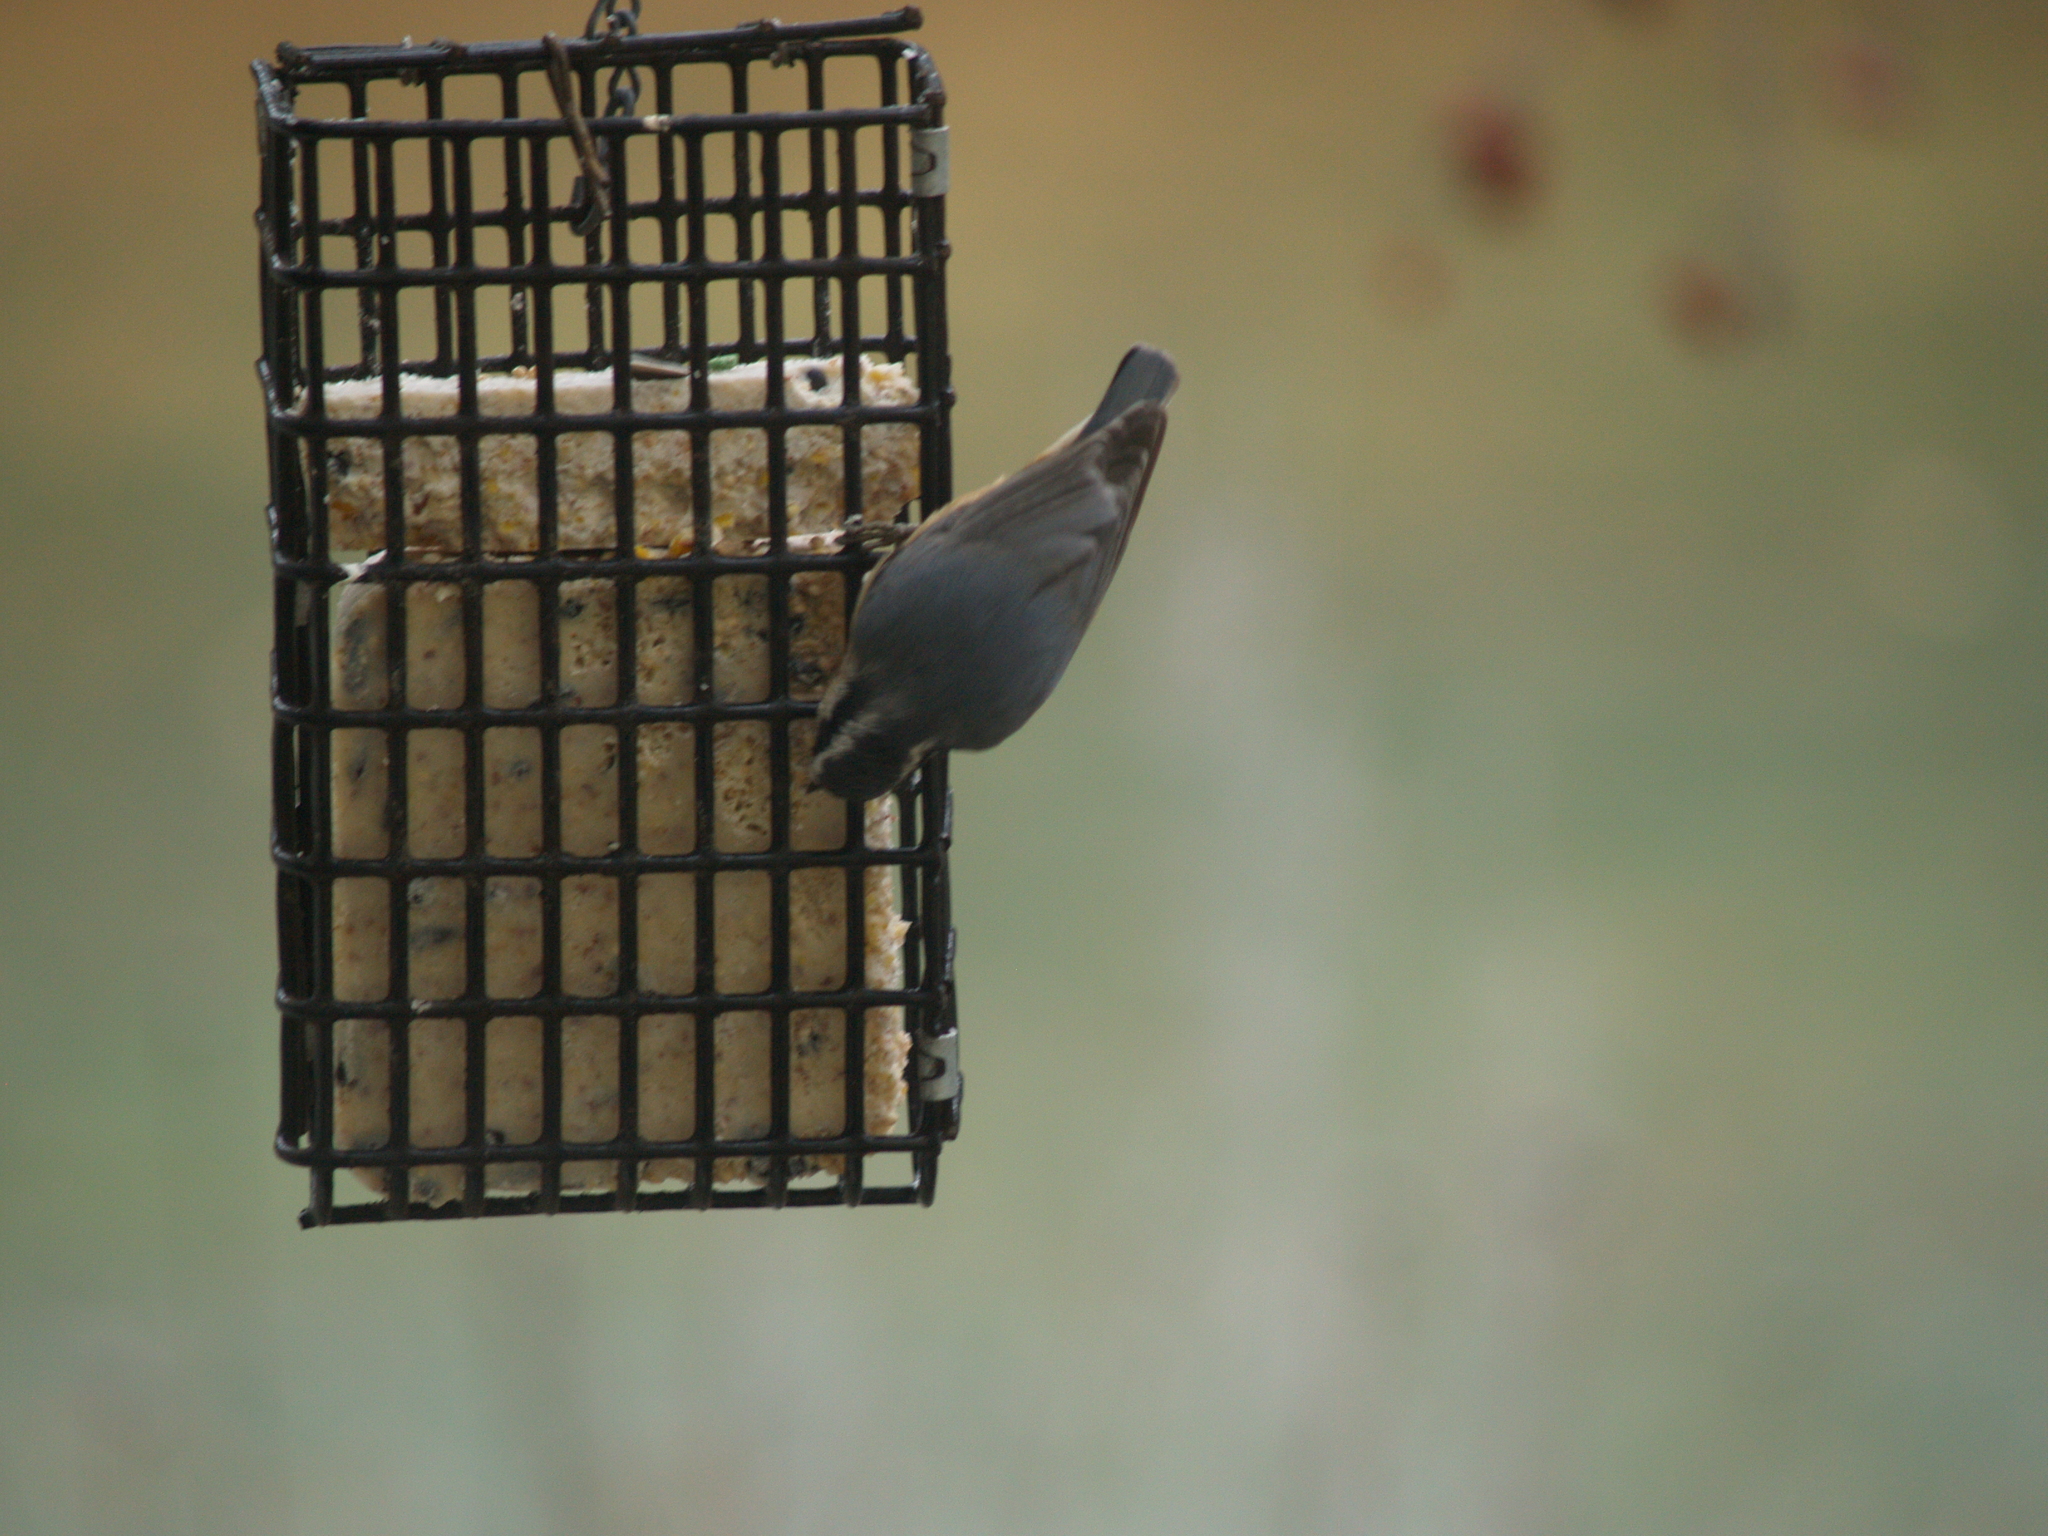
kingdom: Animalia
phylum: Chordata
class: Aves
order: Passeriformes
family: Sittidae
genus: Sitta
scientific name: Sitta canadensis
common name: Red-breasted nuthatch
